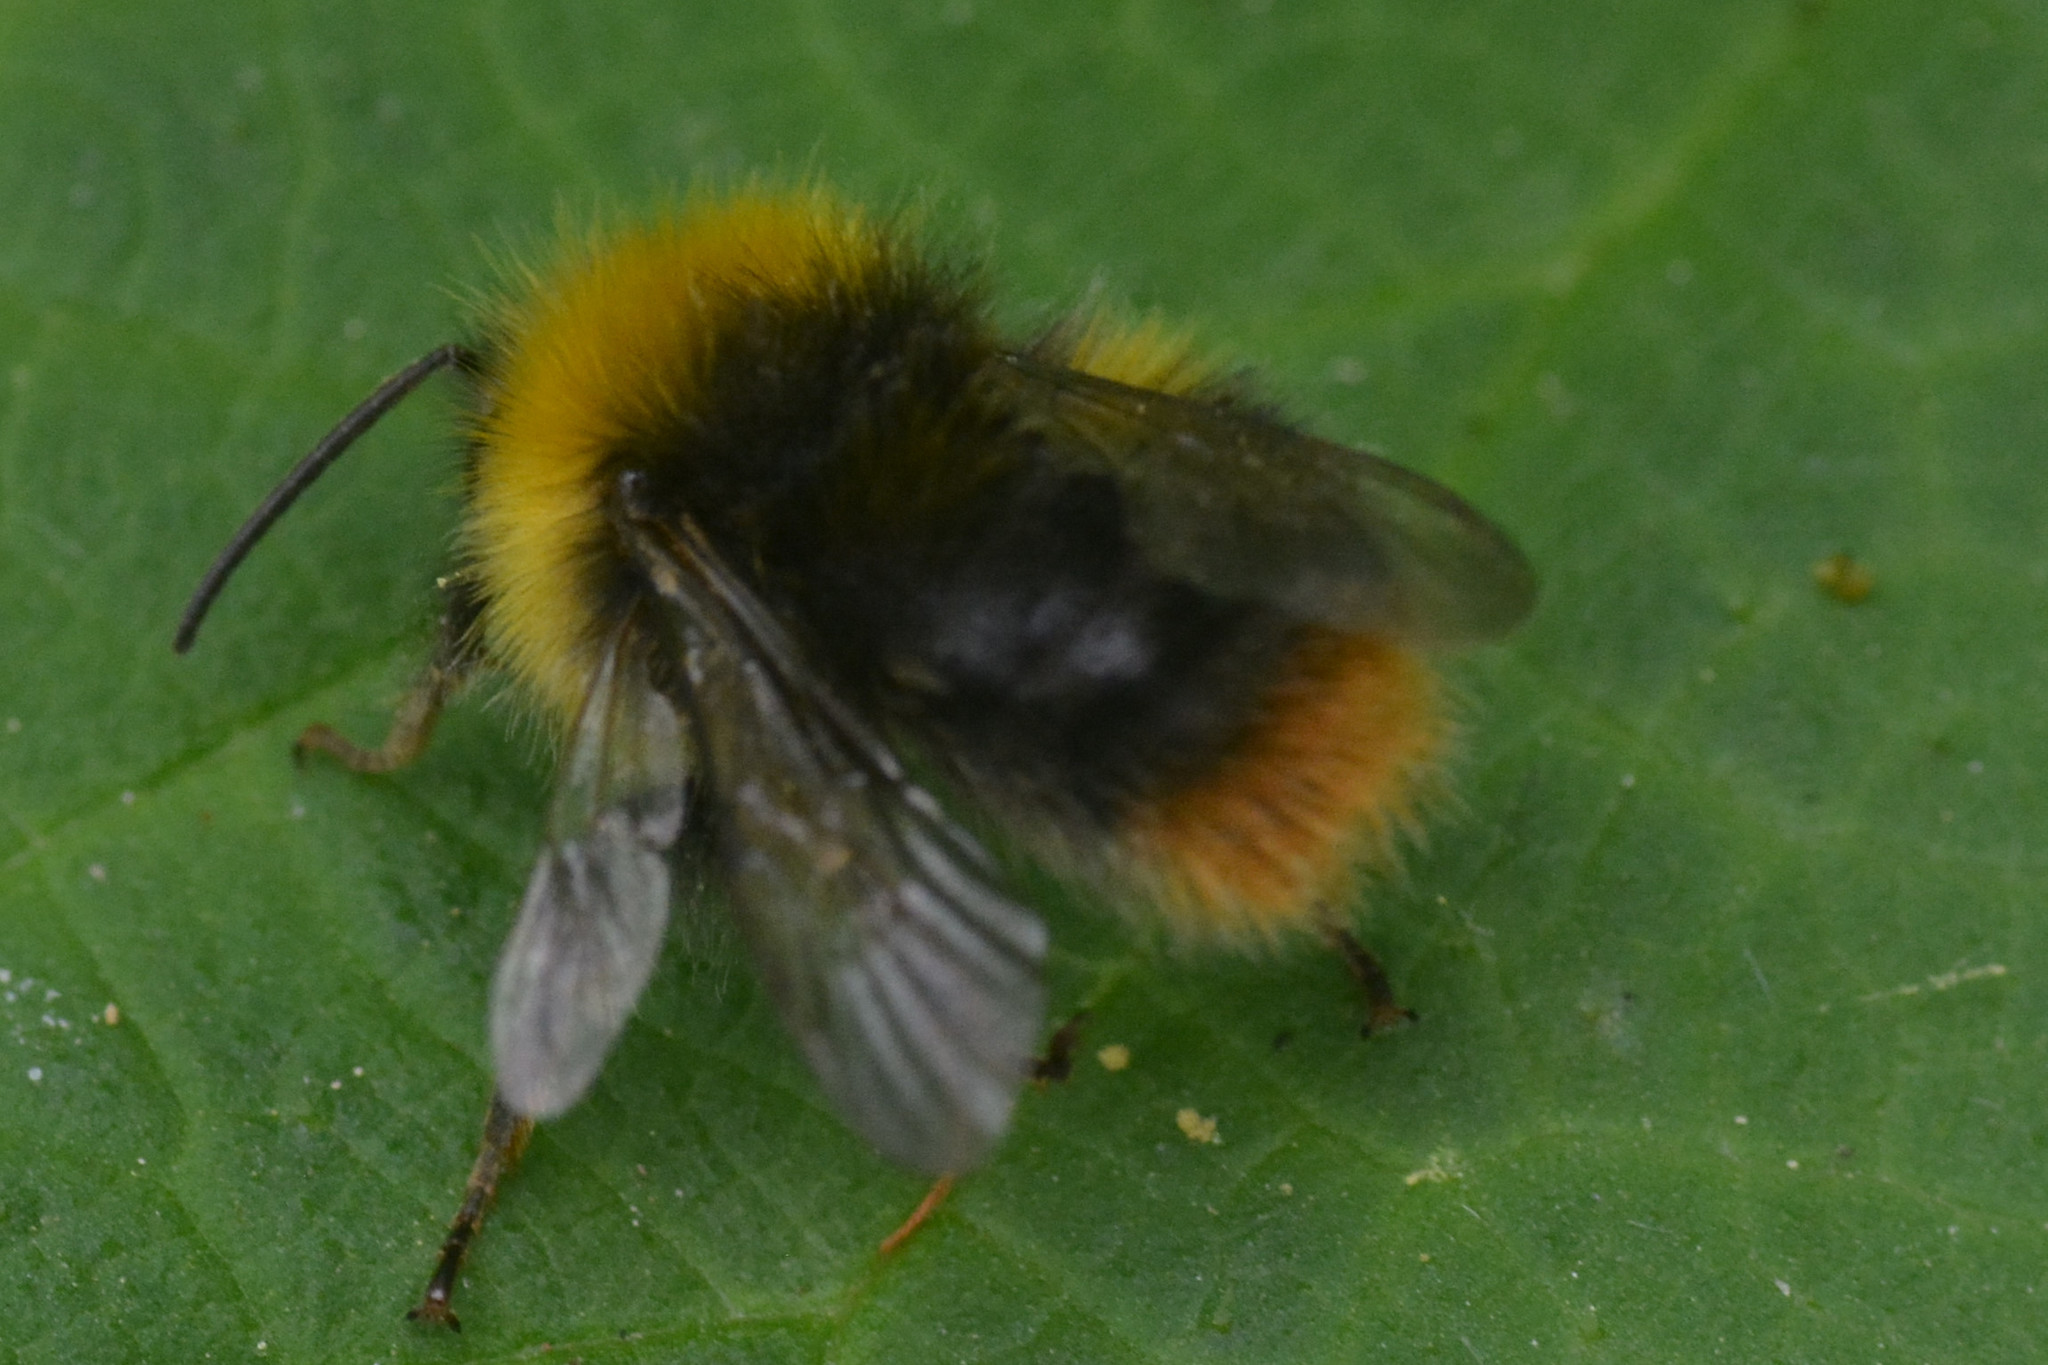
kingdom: Animalia
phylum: Arthropoda
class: Insecta
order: Hymenoptera
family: Apidae
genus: Bombus
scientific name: Bombus pratorum
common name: Early humble-bee
